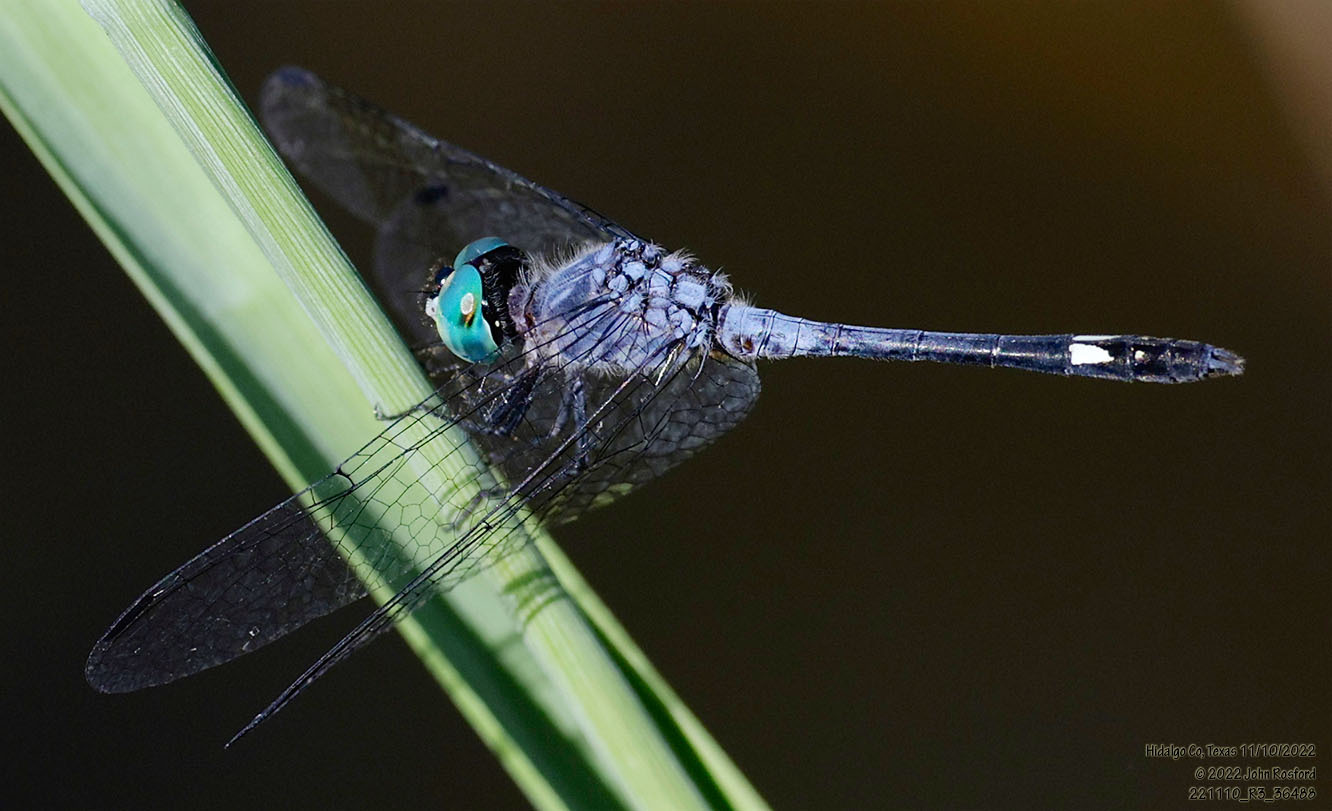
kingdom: Animalia
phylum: Arthropoda
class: Insecta
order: Odonata
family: Libellulidae
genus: Micrathyria
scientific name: Micrathyria aequalis
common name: Spot-tailed dasher
